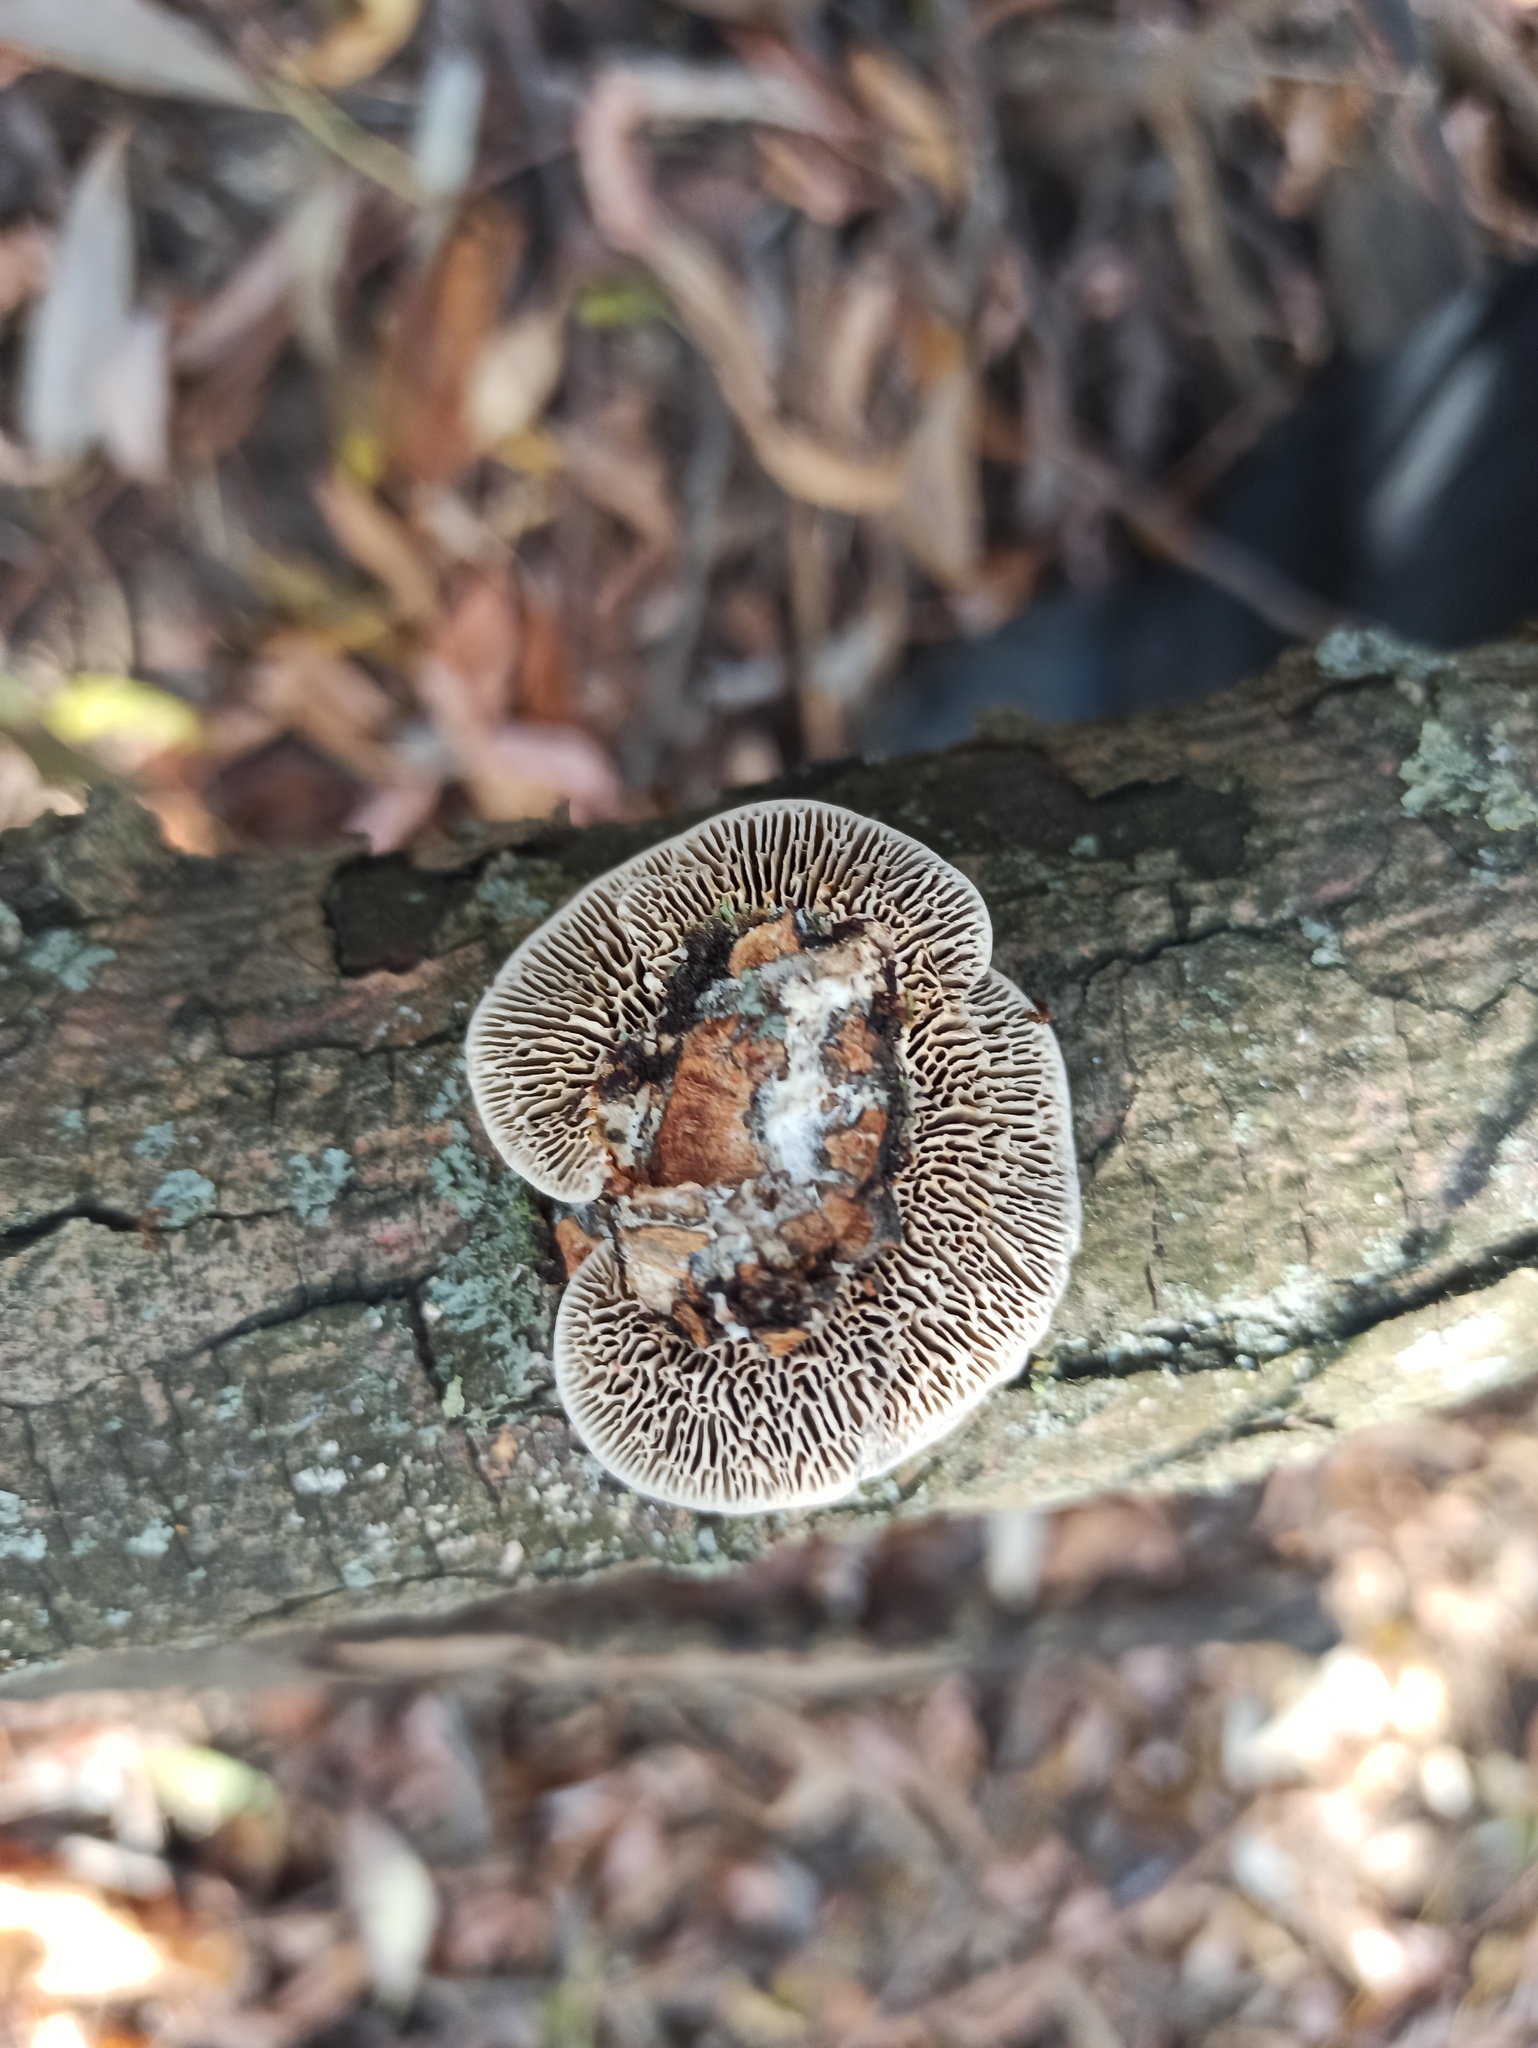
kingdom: Fungi
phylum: Basidiomycota
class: Agaricomycetes
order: Polyporales
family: Polyporaceae
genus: Daedaleopsis
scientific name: Daedaleopsis confragosa
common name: Blushing bracket
